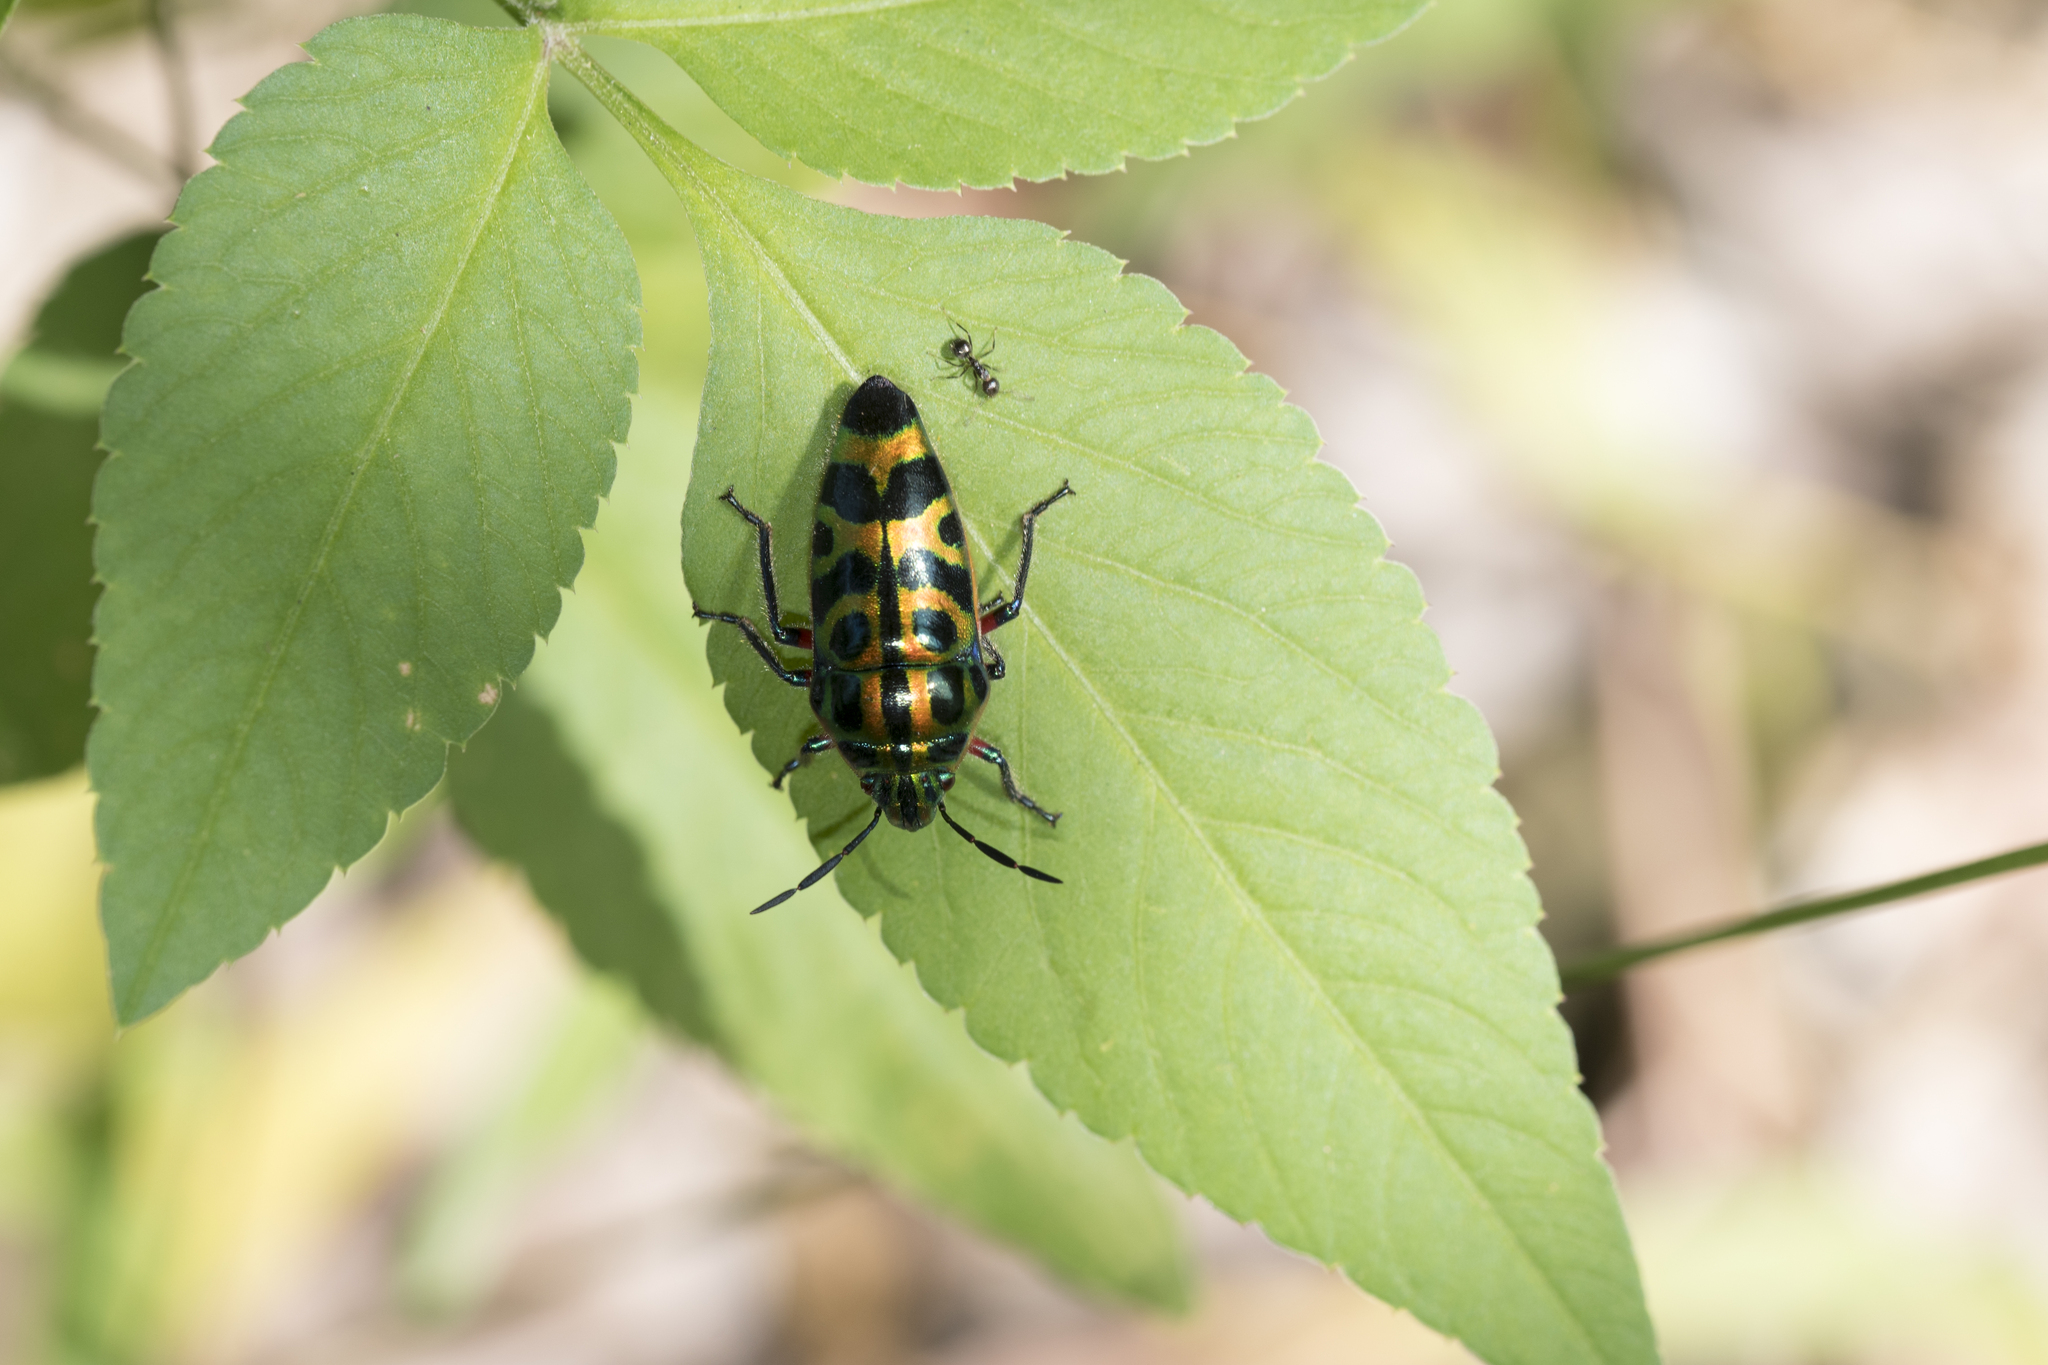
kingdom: Animalia
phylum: Arthropoda
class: Insecta
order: Hemiptera
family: Scutelleridae
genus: Scutellera
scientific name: Scutellera nepalensis
